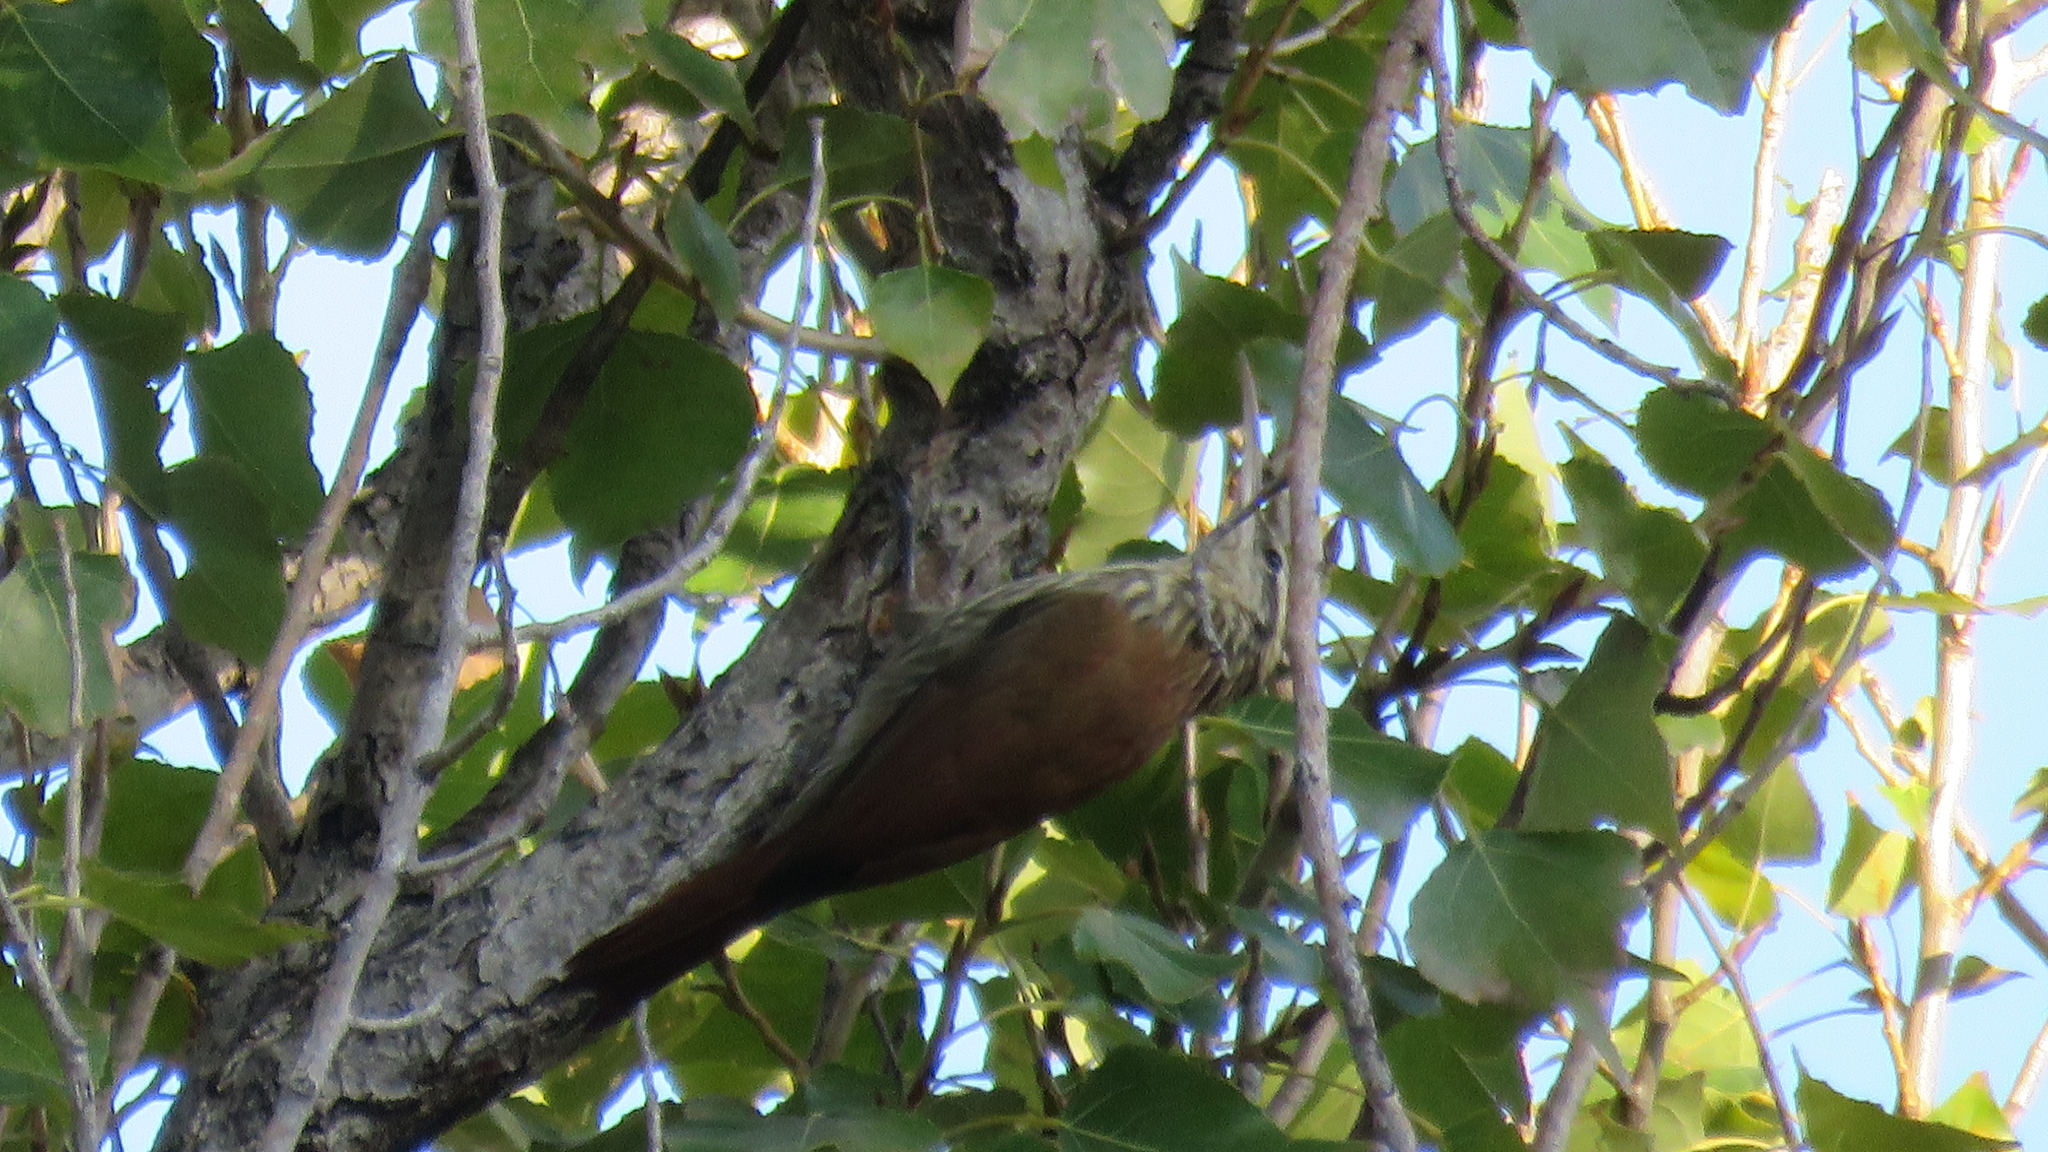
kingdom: Animalia
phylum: Chordata
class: Aves
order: Passeriformes
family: Furnariidae
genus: Lepidocolaptes
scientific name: Lepidocolaptes angustirostris
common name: Narrow-billed woodcreeper
